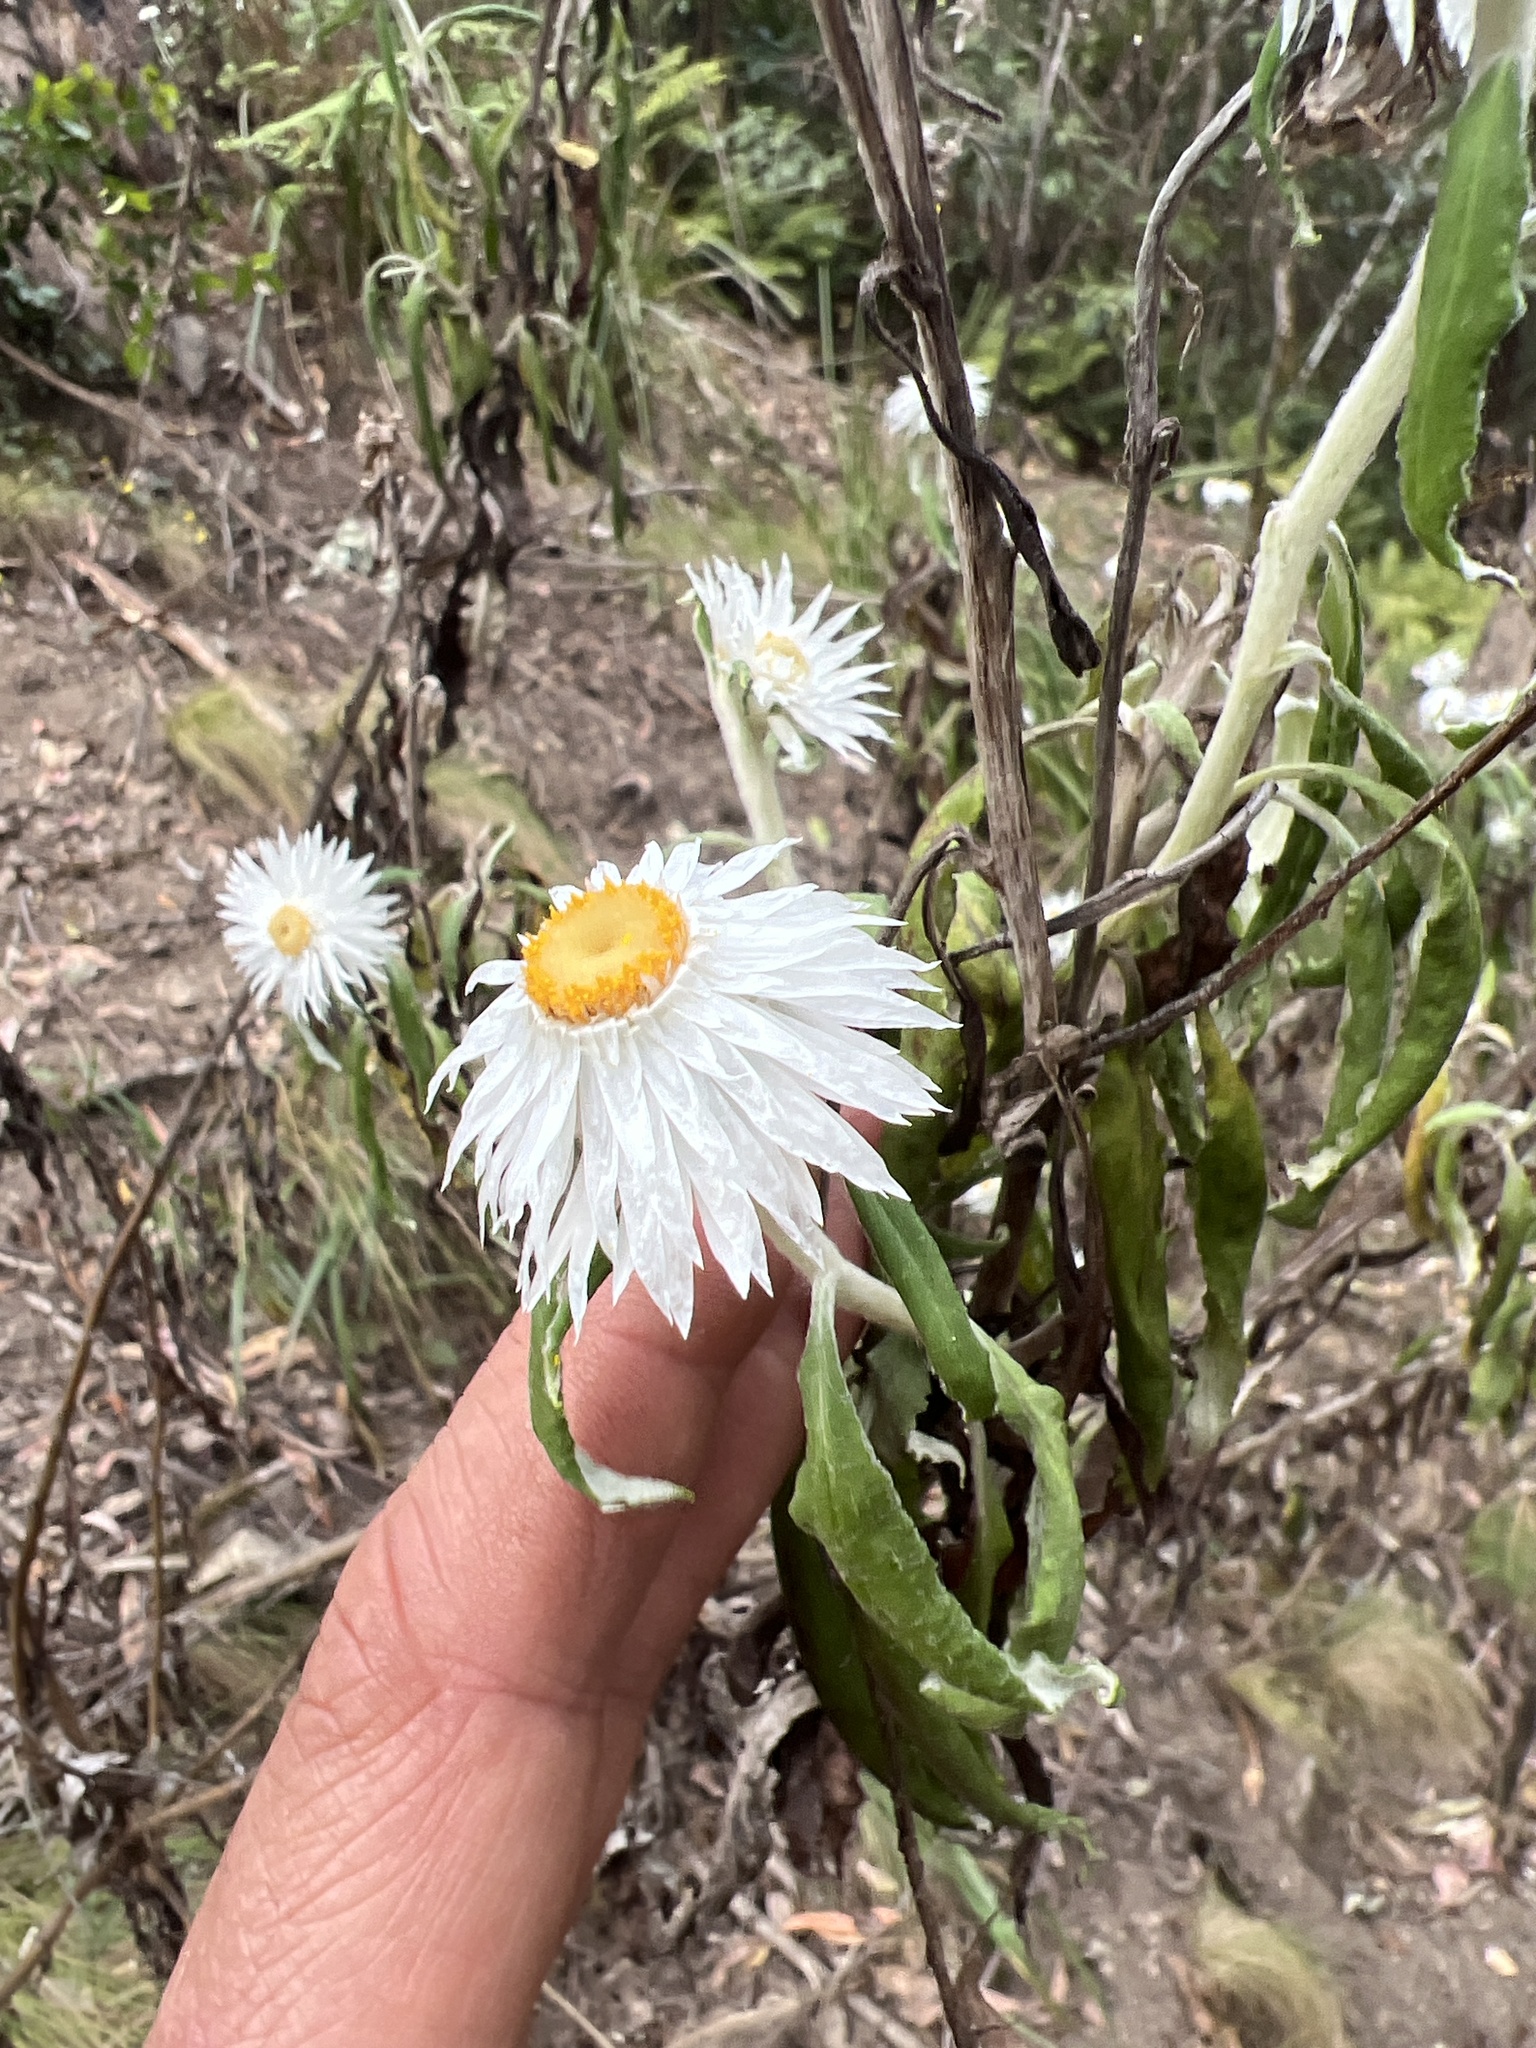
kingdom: Plantae
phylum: Tracheophyta
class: Magnoliopsida
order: Asterales
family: Asteraceae
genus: Leucozoma
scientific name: Leucozoma elatum
